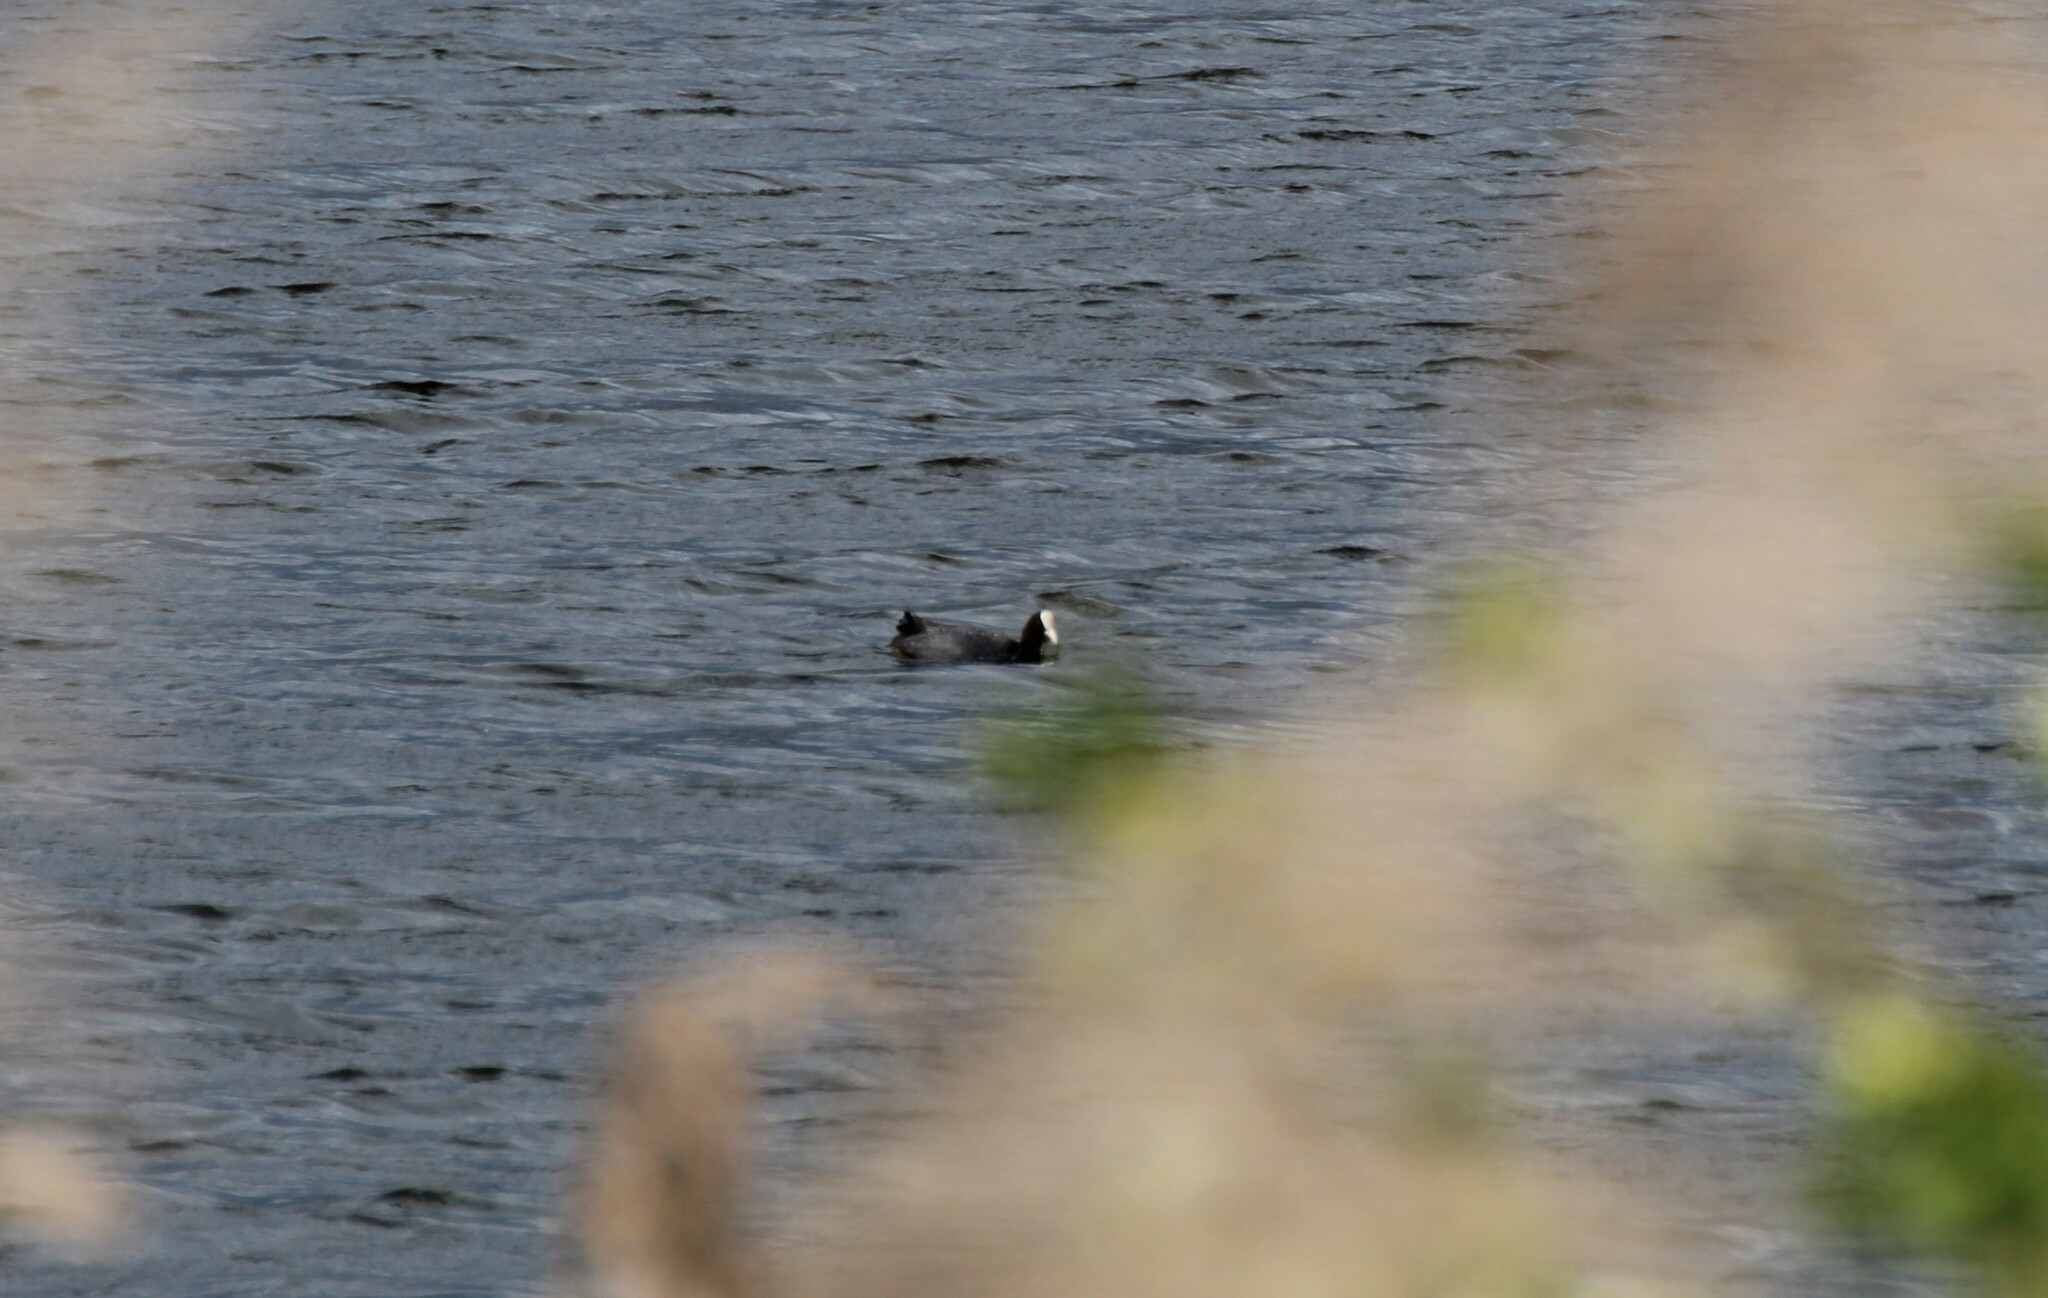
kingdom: Animalia
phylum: Chordata
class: Aves
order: Gruiformes
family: Rallidae
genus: Fulica
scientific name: Fulica atra
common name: Eurasian coot
